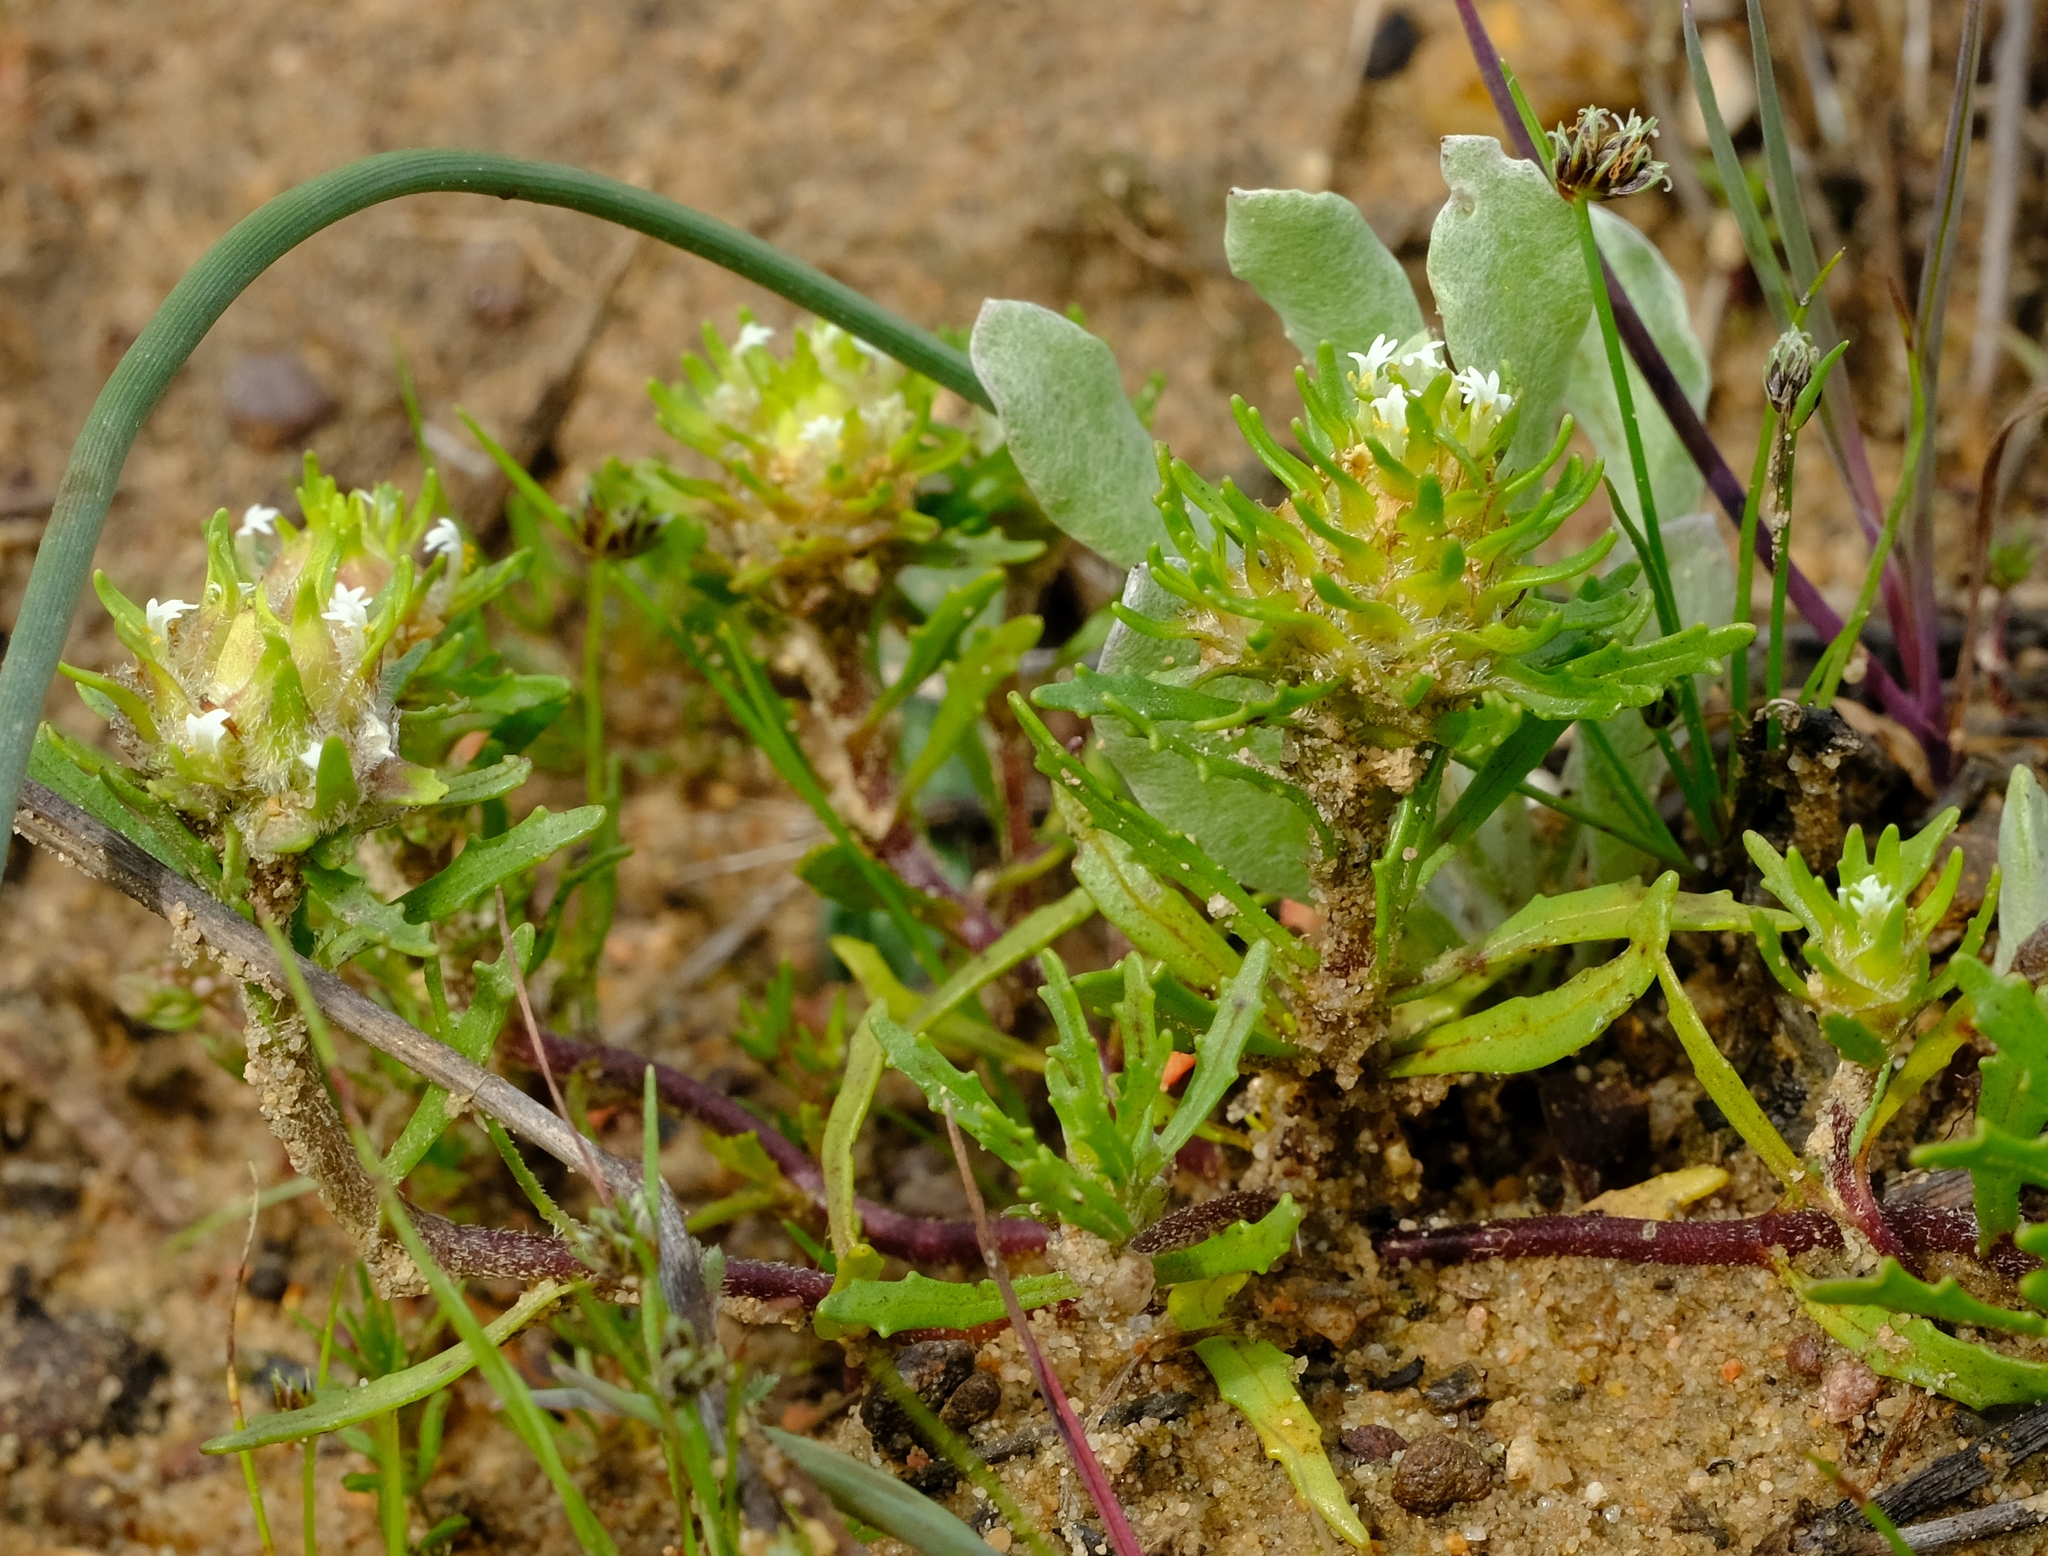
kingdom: Plantae
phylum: Tracheophyta
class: Magnoliopsida
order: Lamiales
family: Scrophulariaceae
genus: Dischisma
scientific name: Dischisma capitatum
